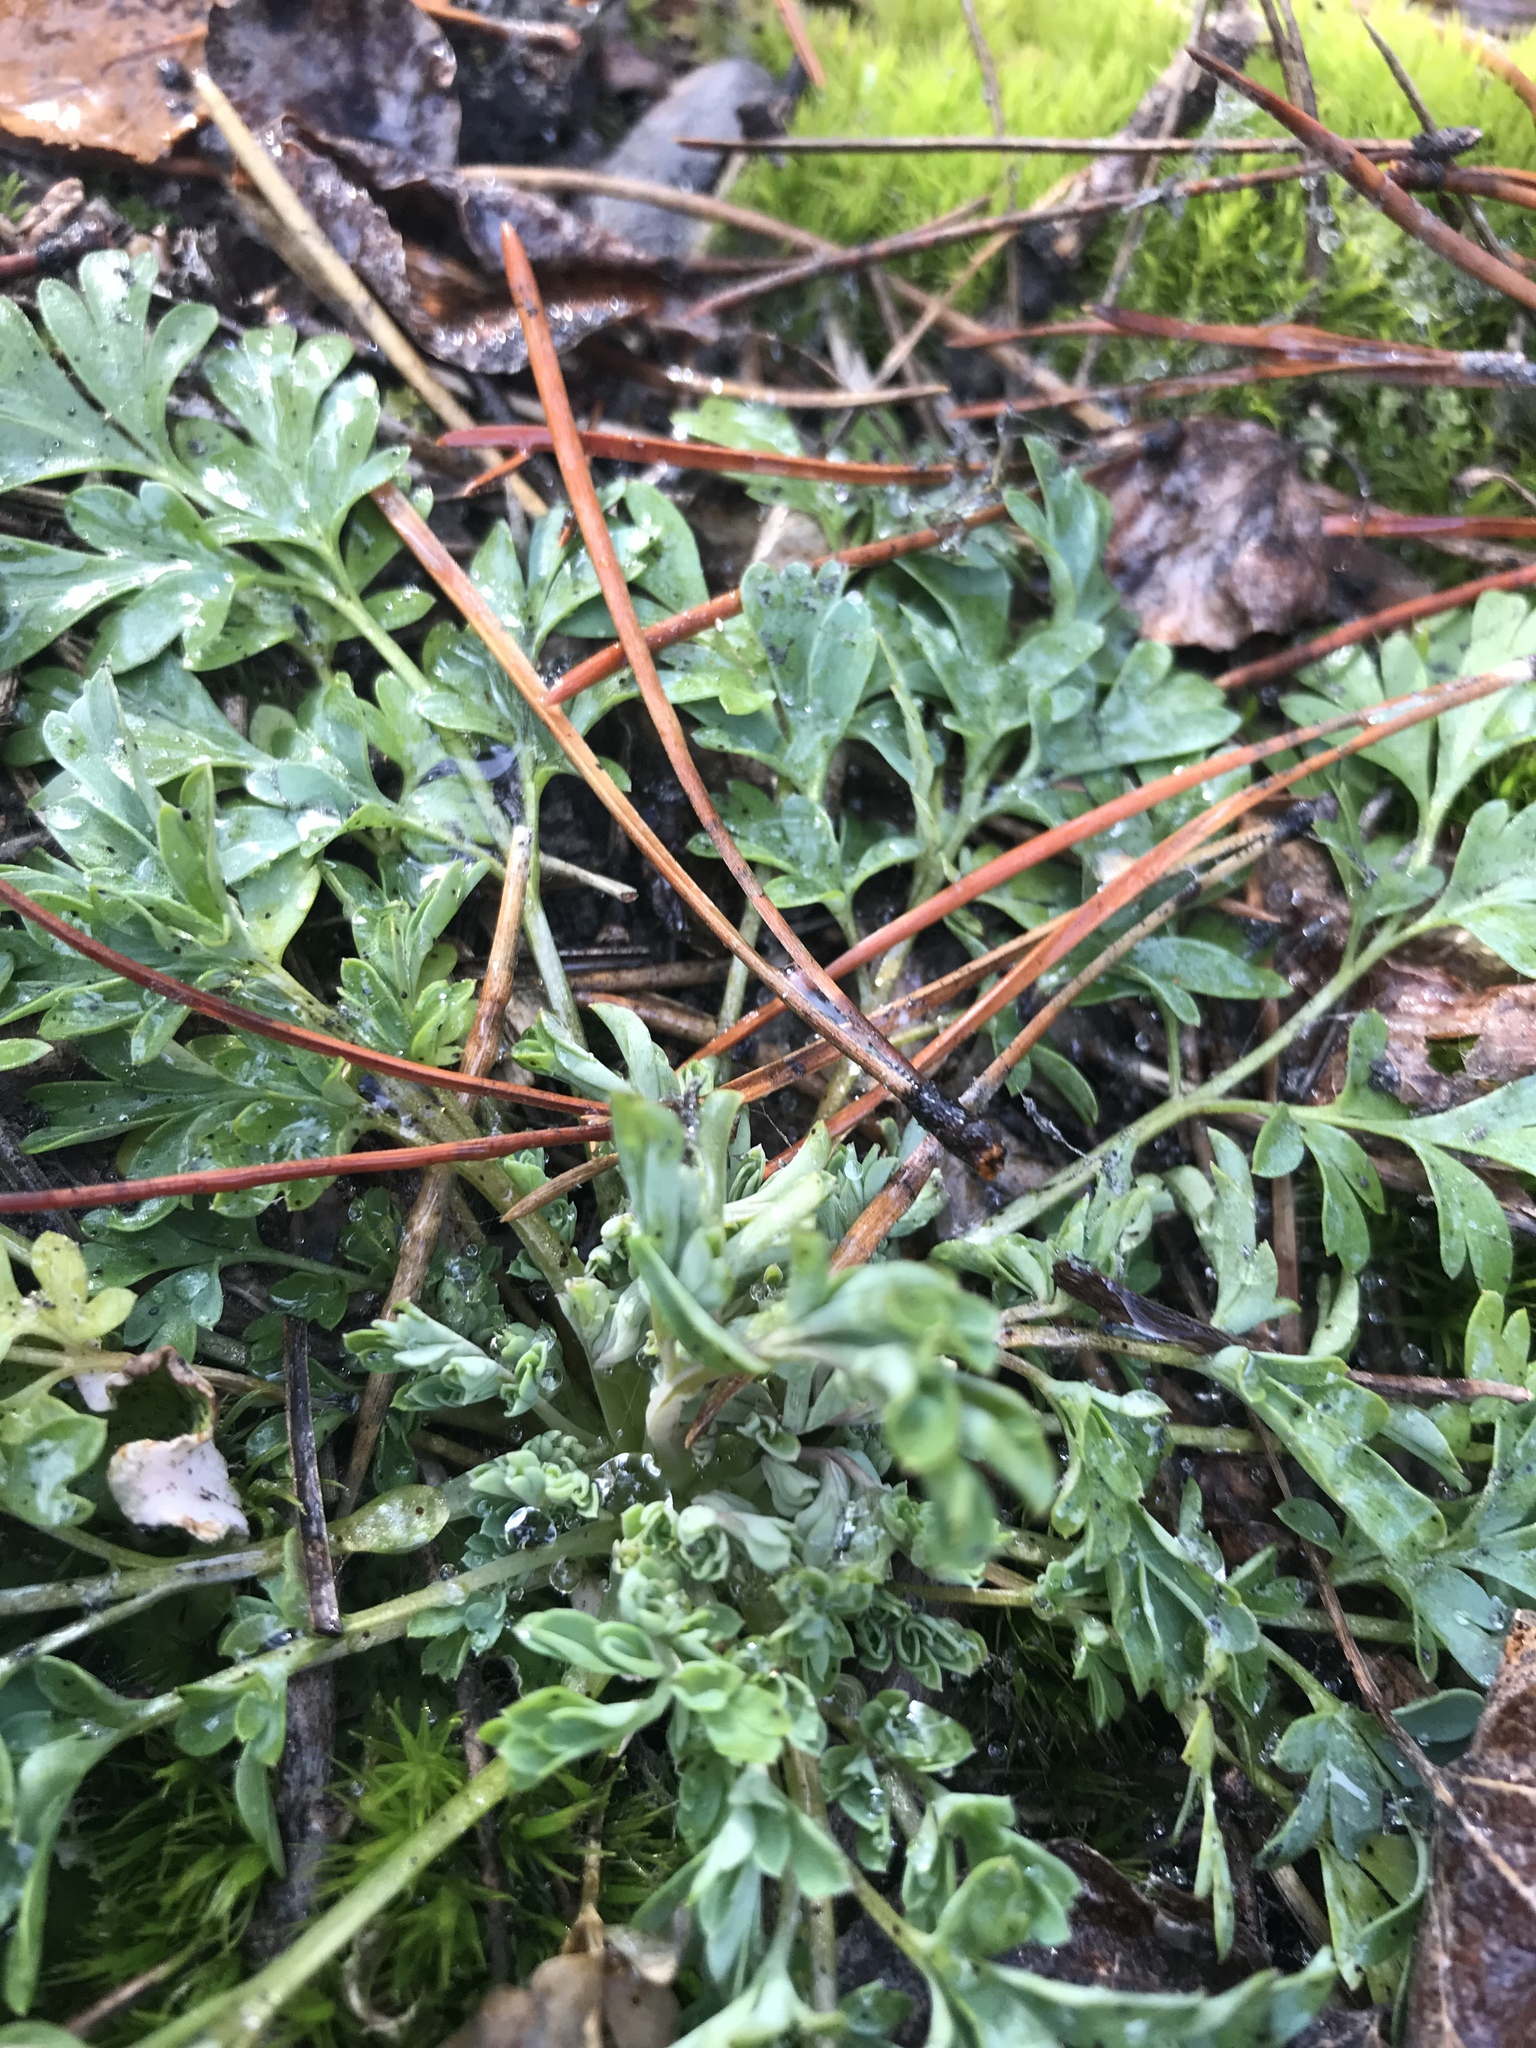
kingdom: Plantae
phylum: Tracheophyta
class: Magnoliopsida
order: Ranunculales
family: Papaveraceae
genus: Corydalis
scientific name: Corydalis aurea
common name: Golden corydalis
